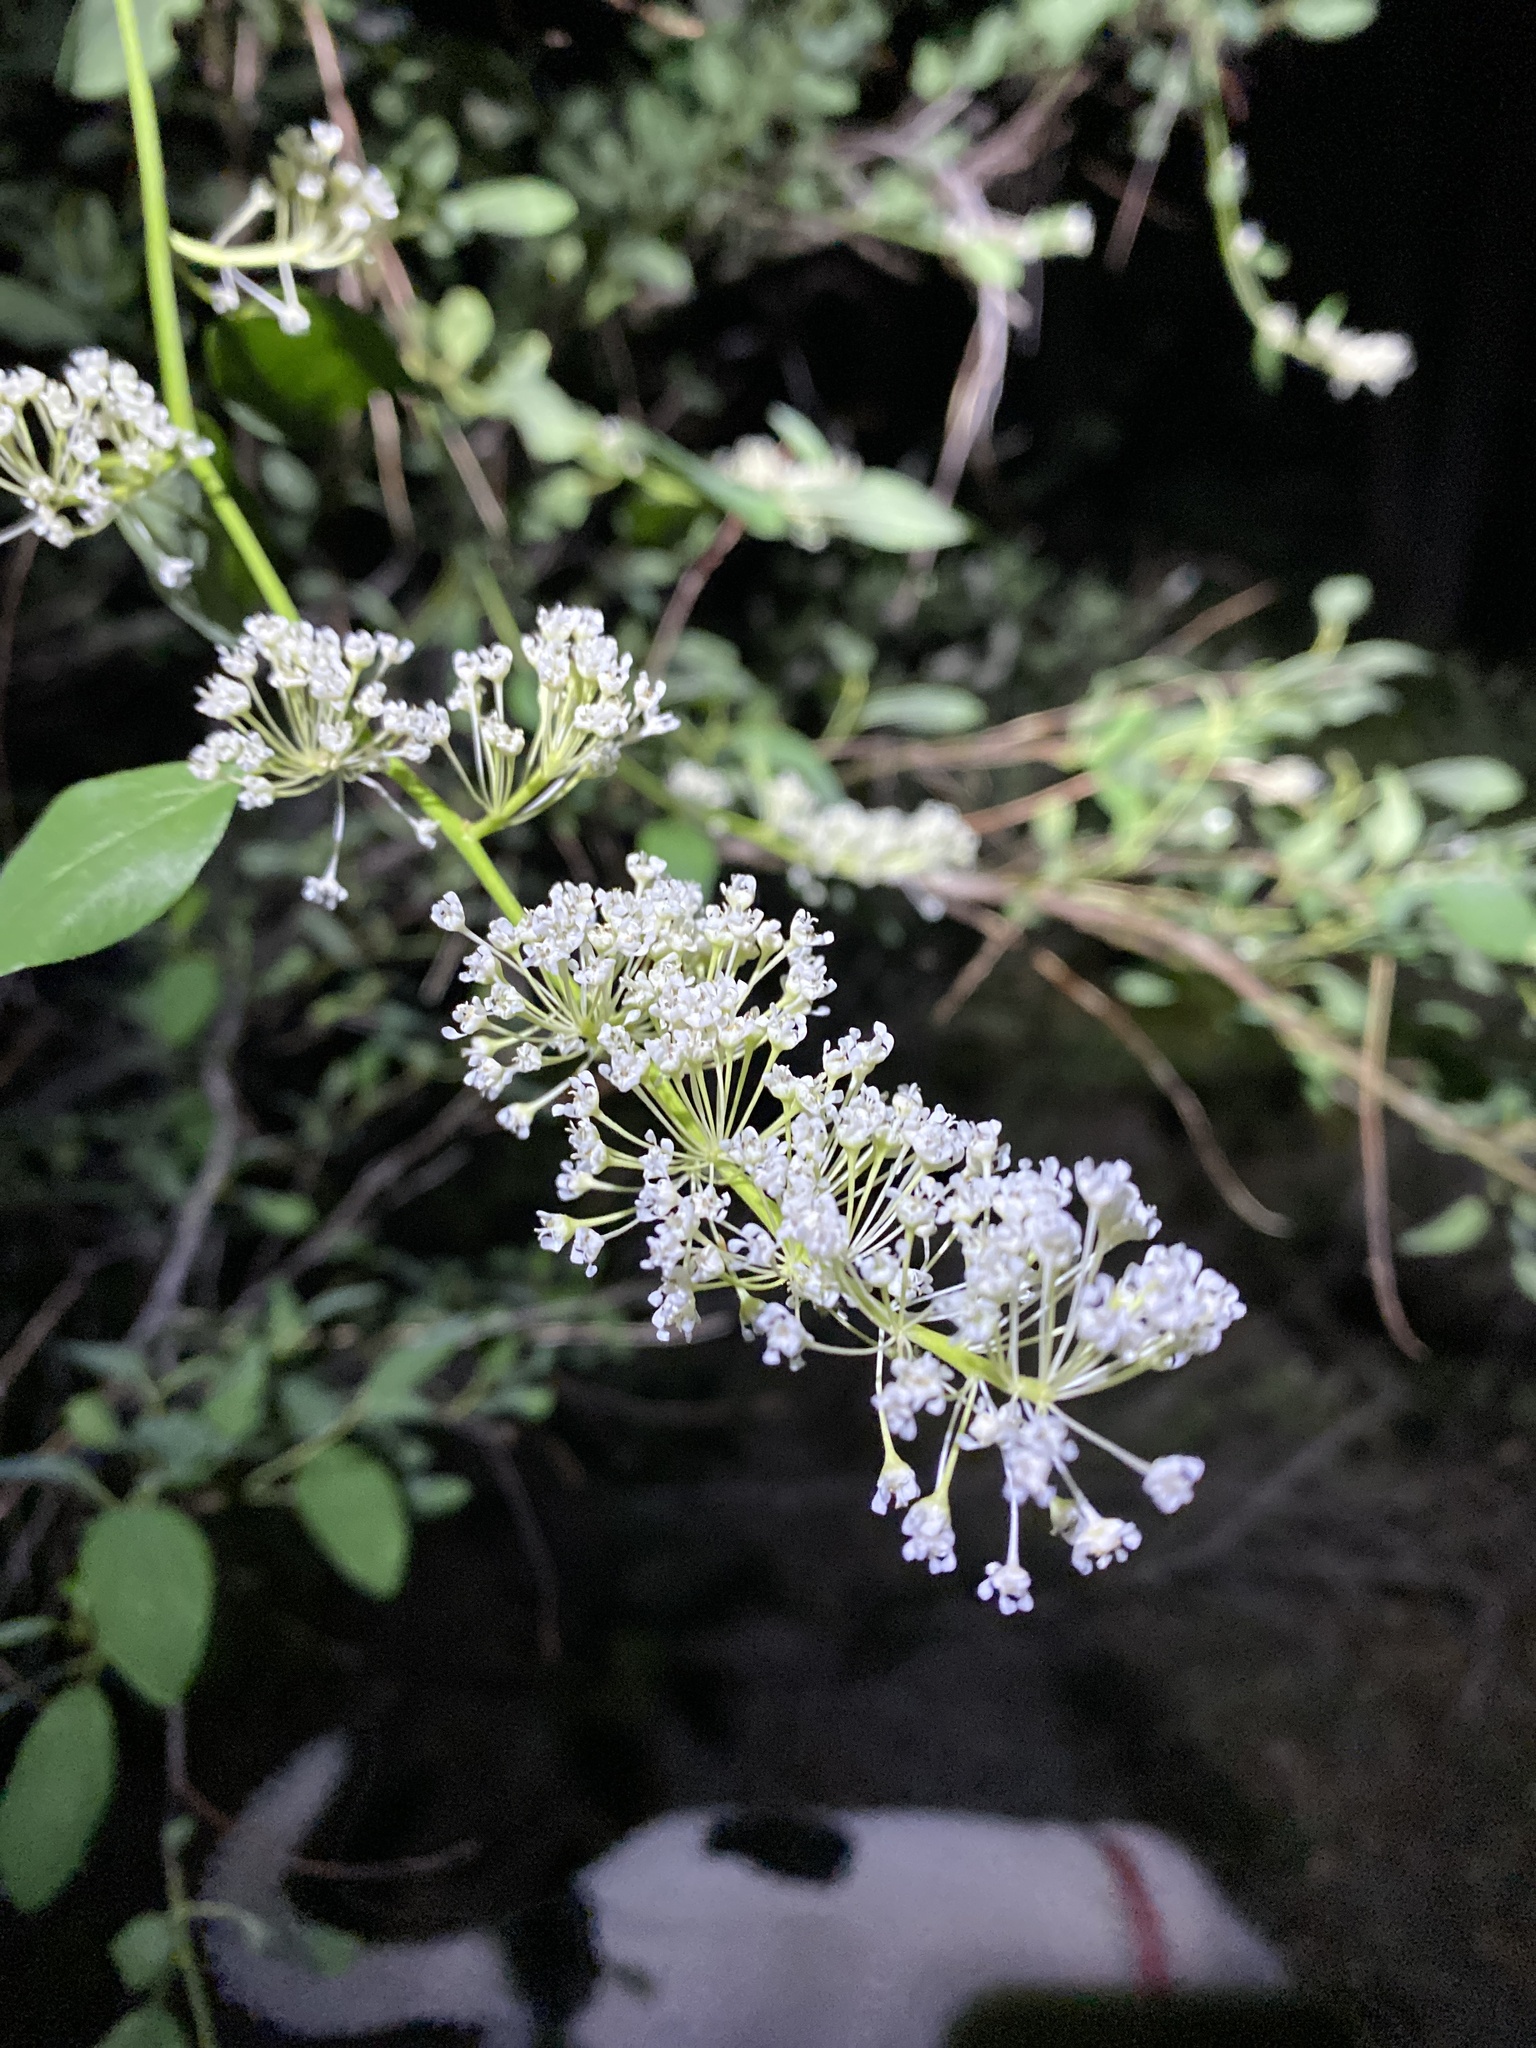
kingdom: Plantae
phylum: Tracheophyta
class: Magnoliopsida
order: Rosales
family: Rhamnaceae
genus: Ceanothus
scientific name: Ceanothus integerrimus
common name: Deerbrush ceanothus
